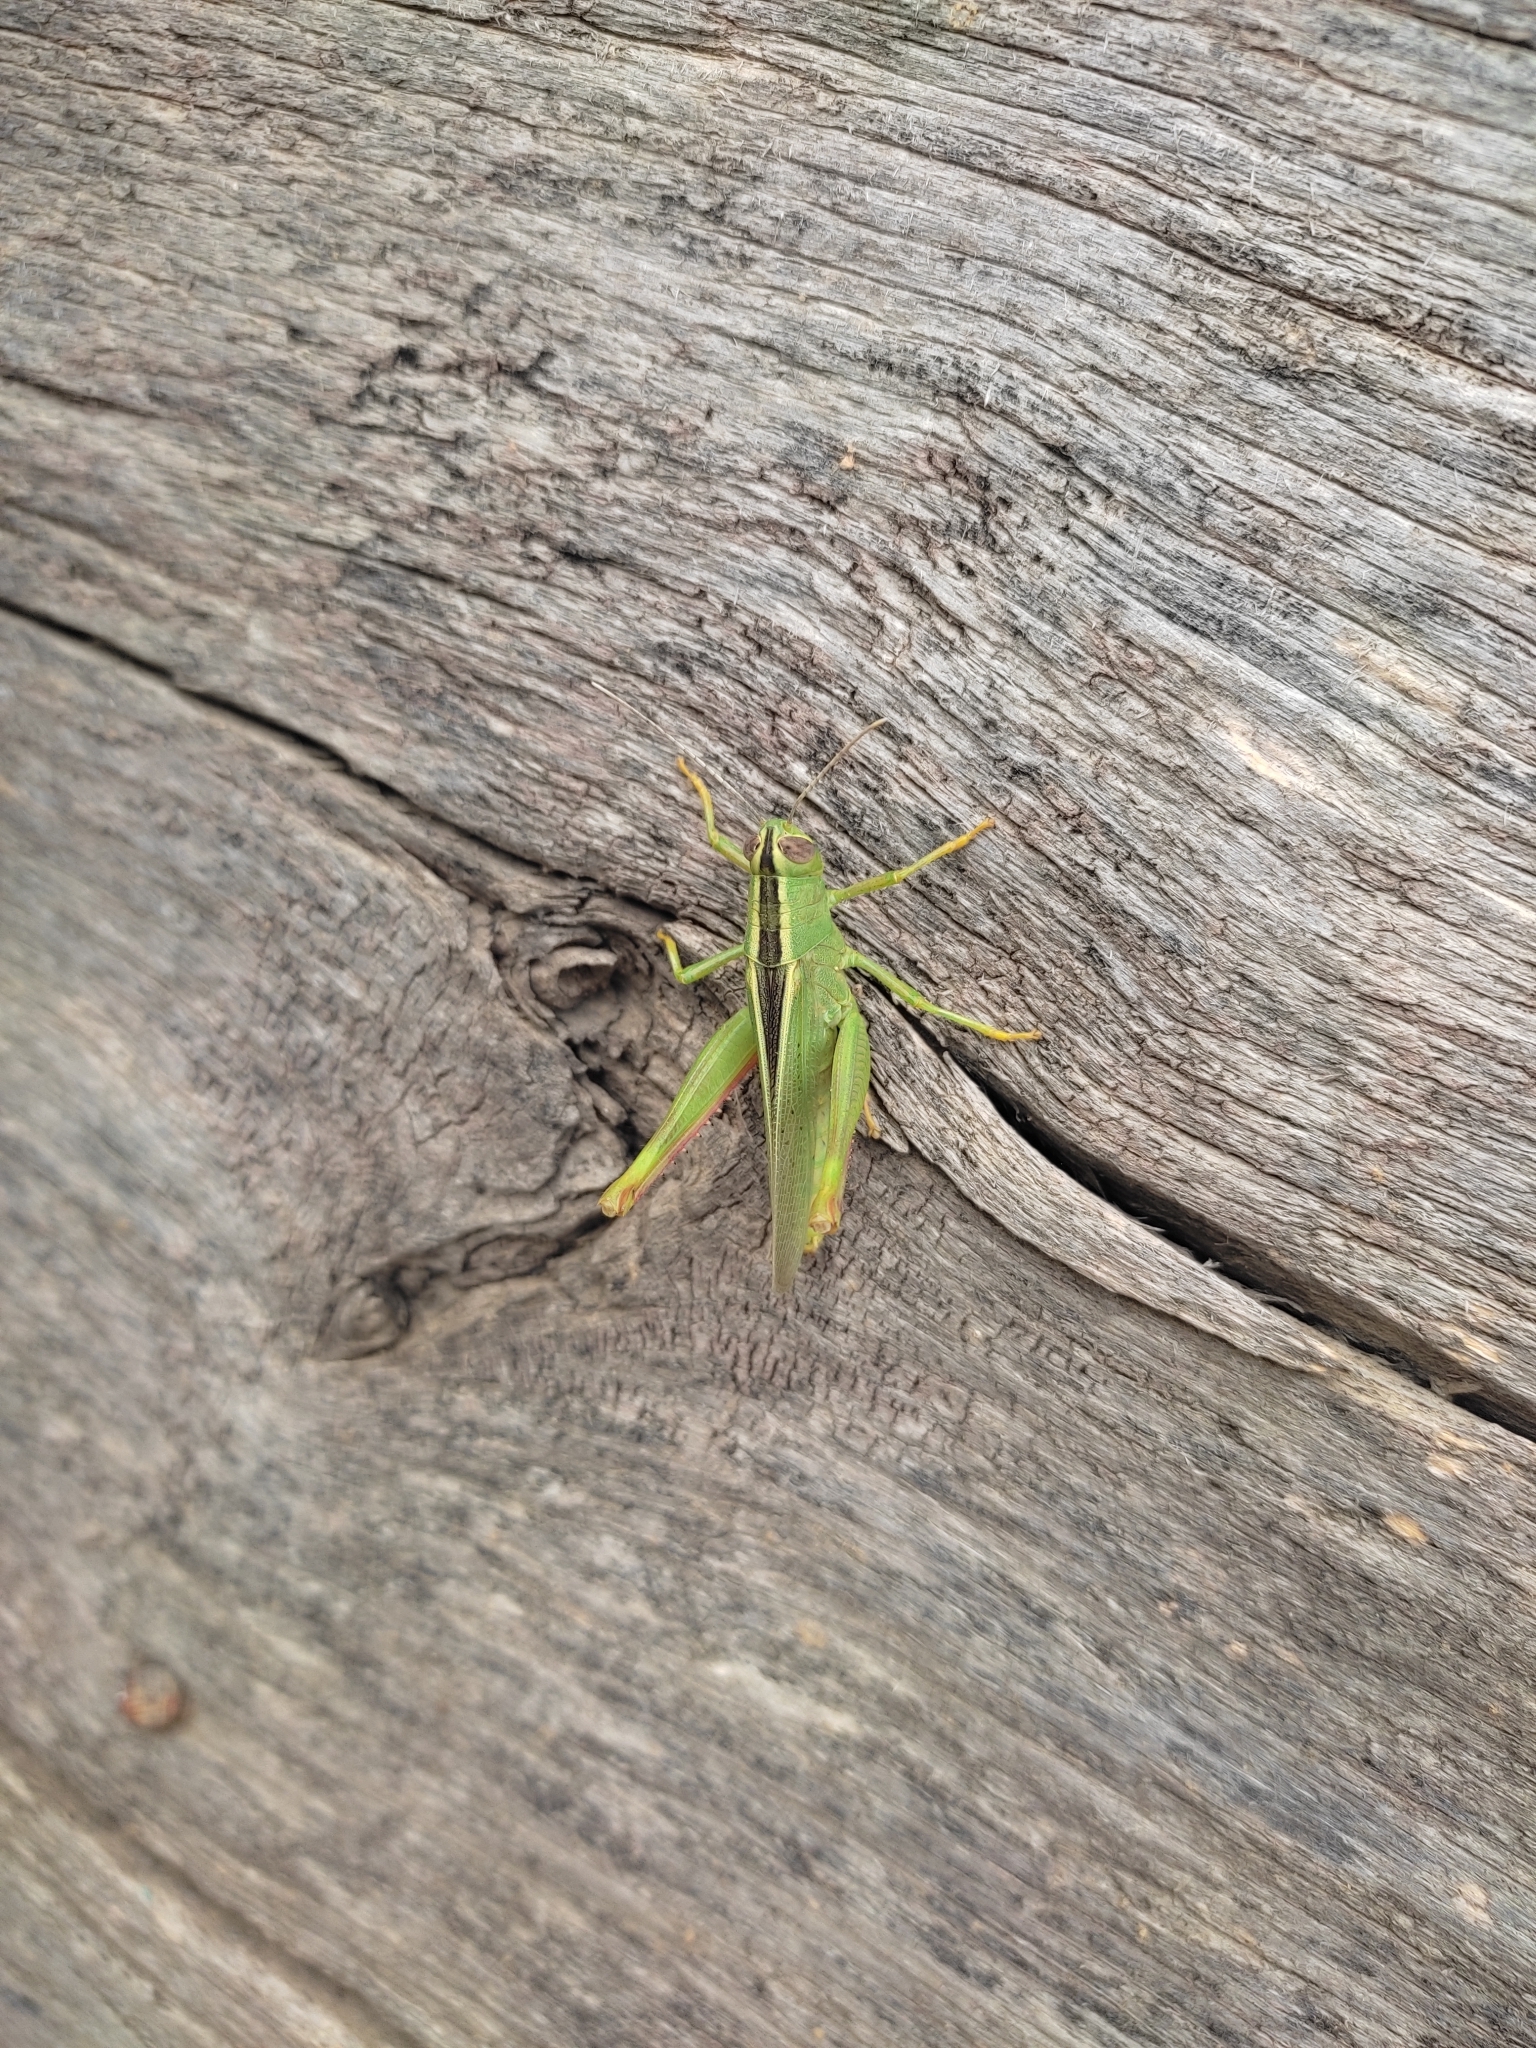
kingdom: Animalia
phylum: Arthropoda
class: Insecta
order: Orthoptera
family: Acrididae
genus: Heteracris
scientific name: Heteracris pterosticha
